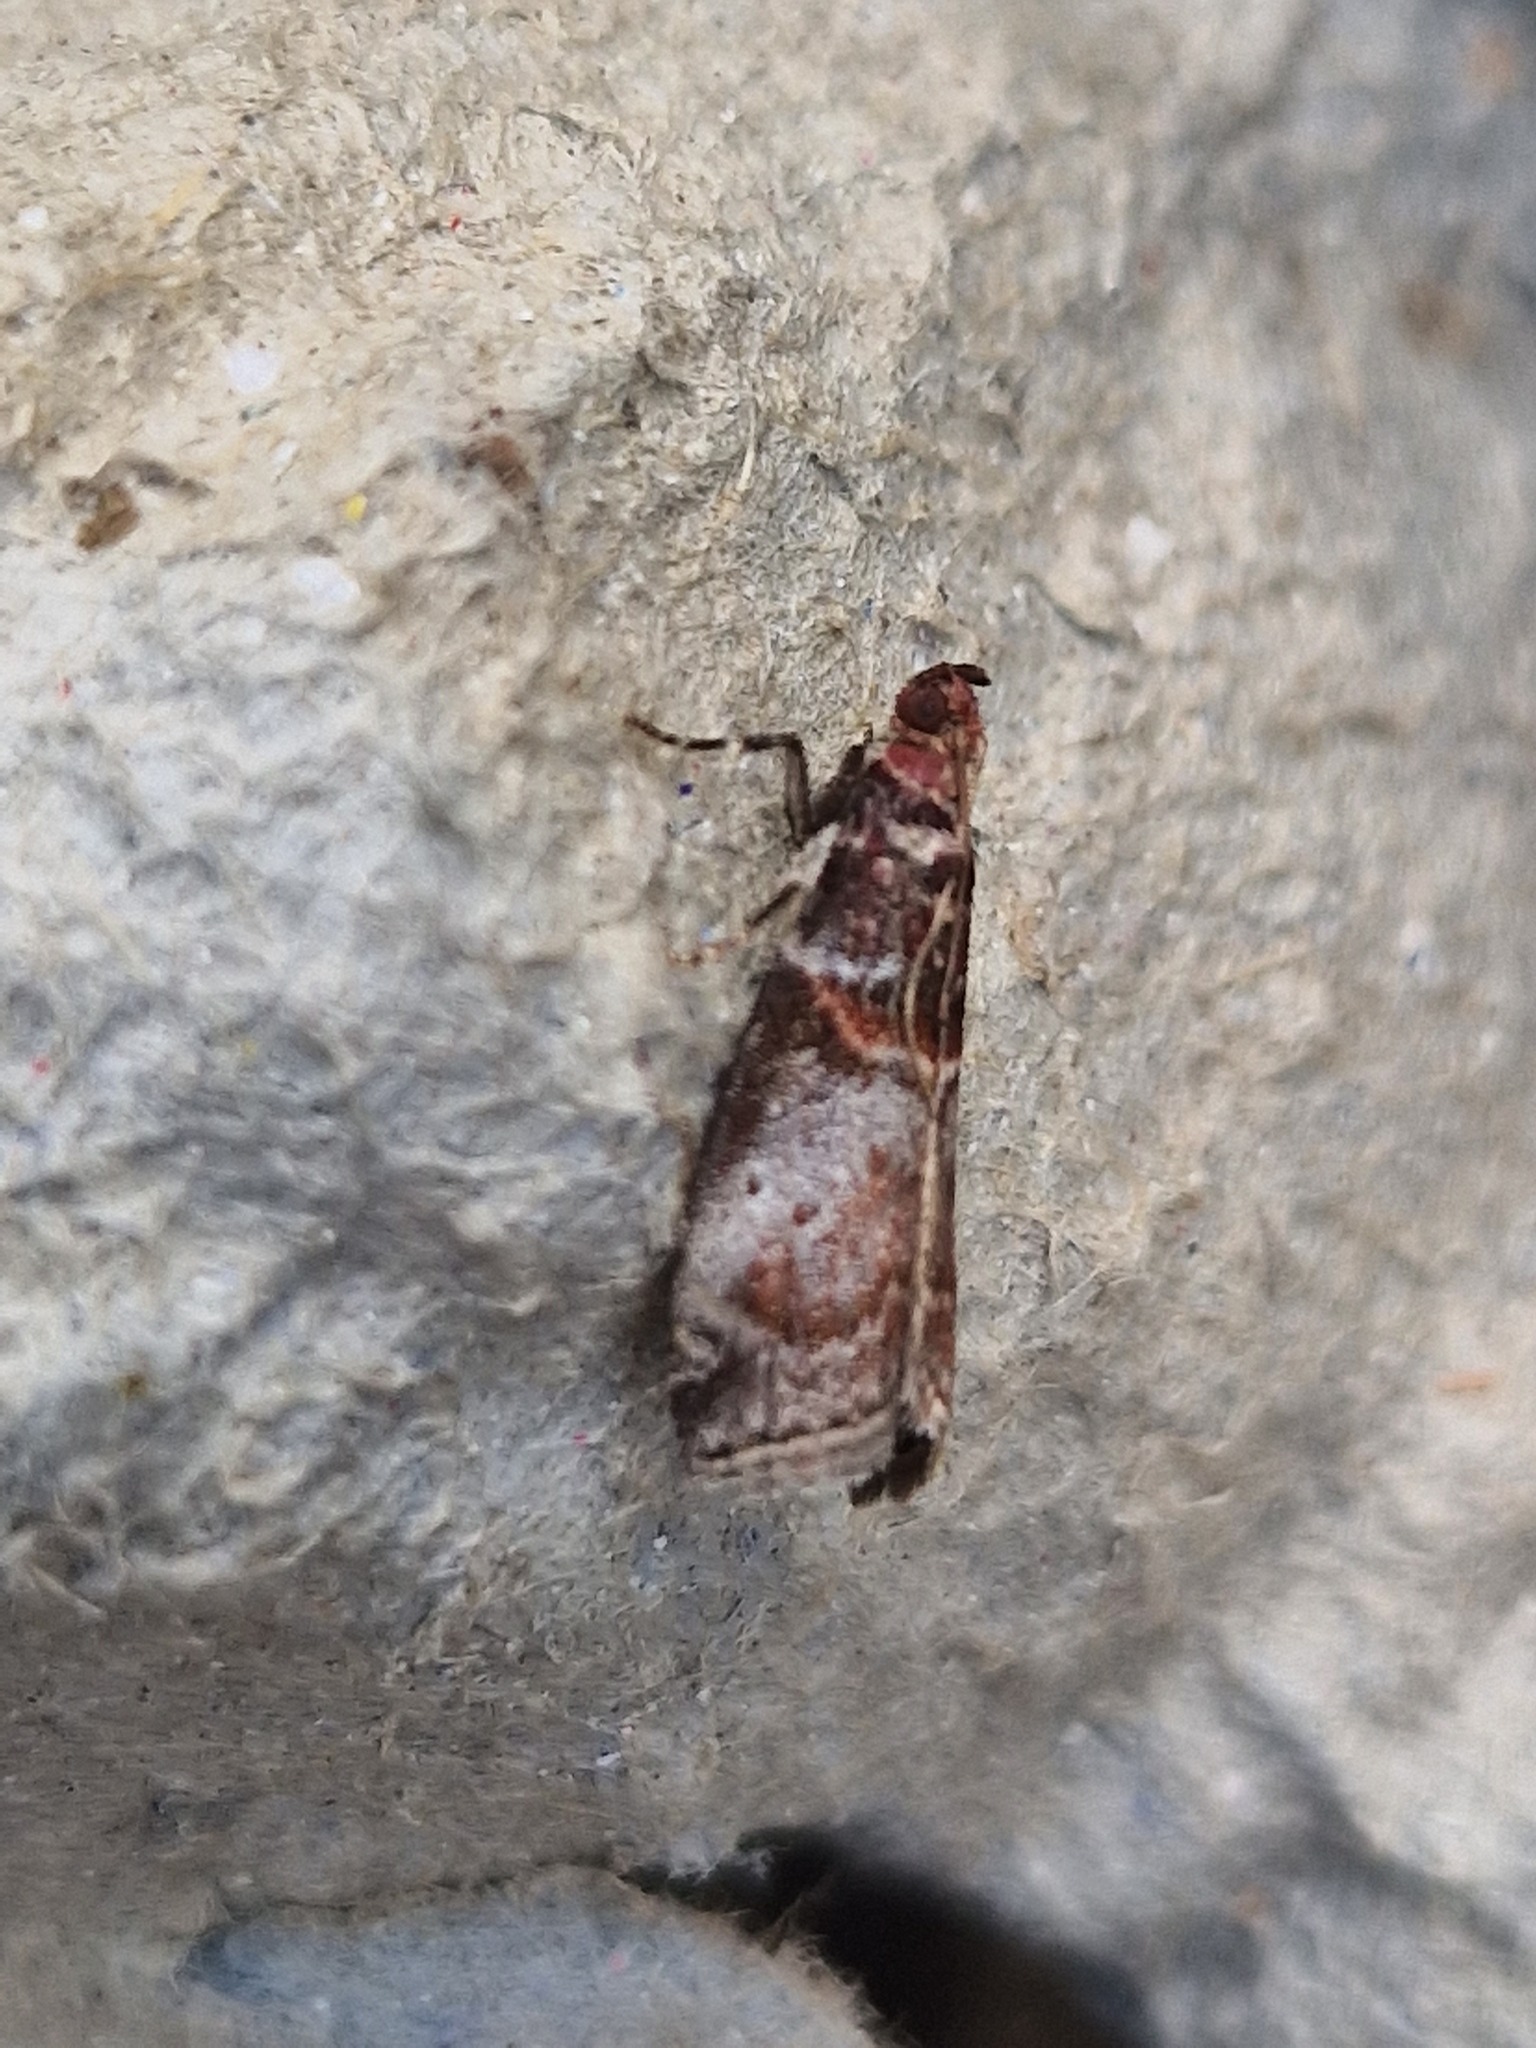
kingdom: Animalia
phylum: Arthropoda
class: Insecta
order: Lepidoptera
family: Pyralidae
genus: Acrobasis
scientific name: Acrobasis advenella
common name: Grey knot-horn
